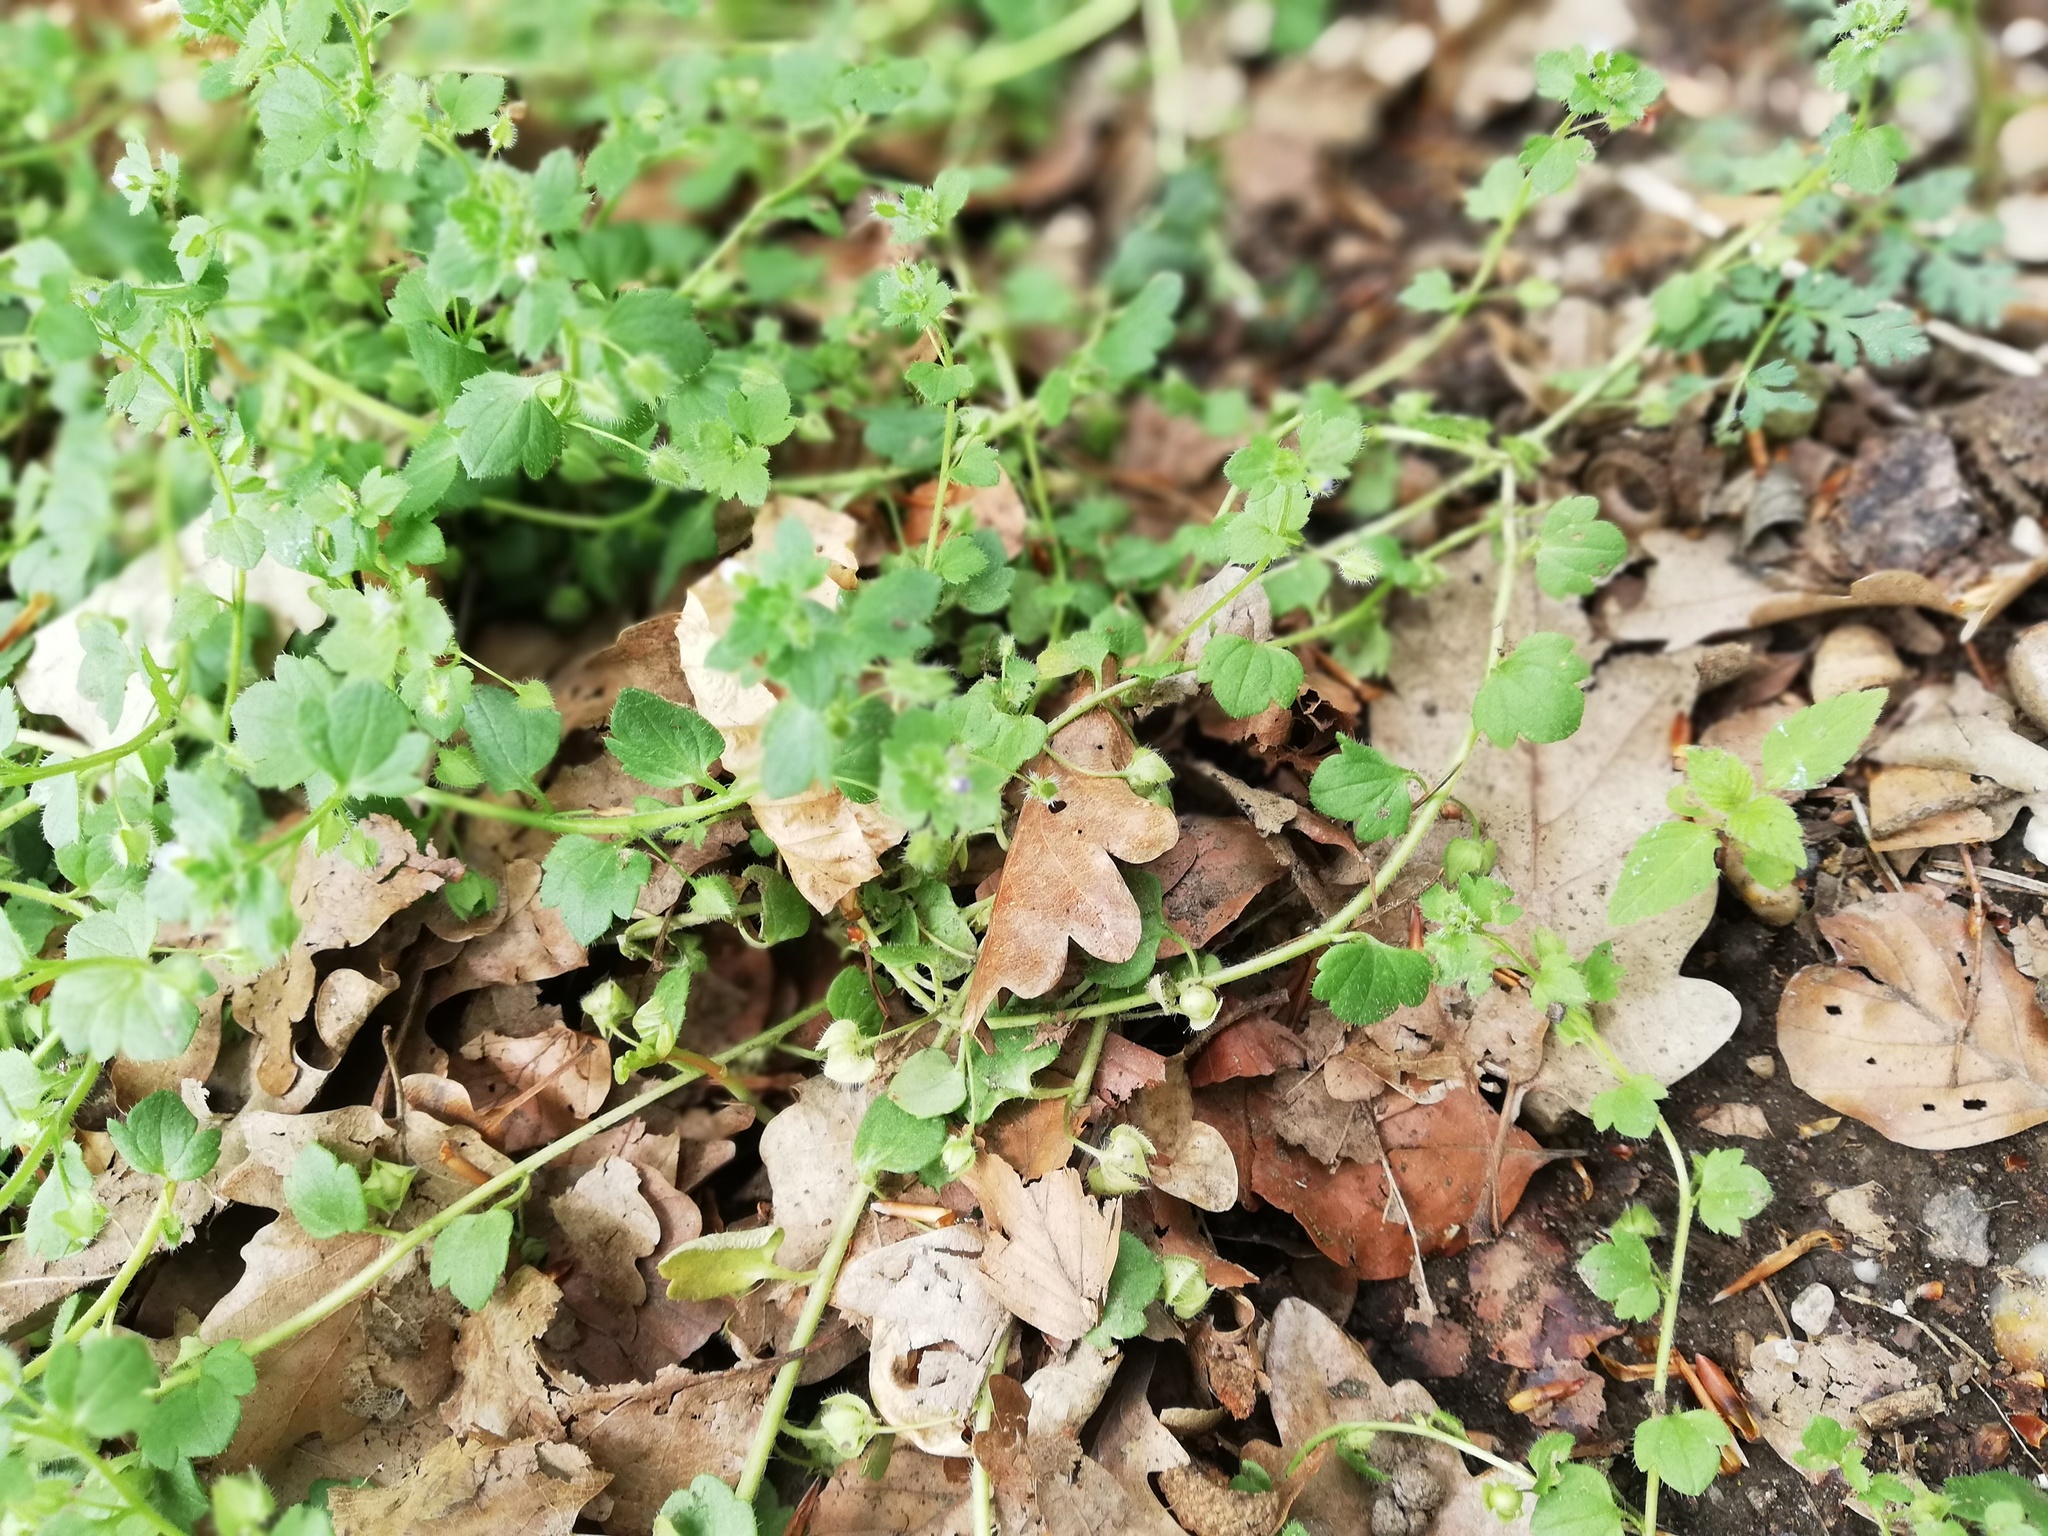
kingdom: Plantae
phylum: Tracheophyta
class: Magnoliopsida
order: Lamiales
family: Plantaginaceae
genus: Veronica
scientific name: Veronica hederifolia
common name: Ivy-leaved speedwell
